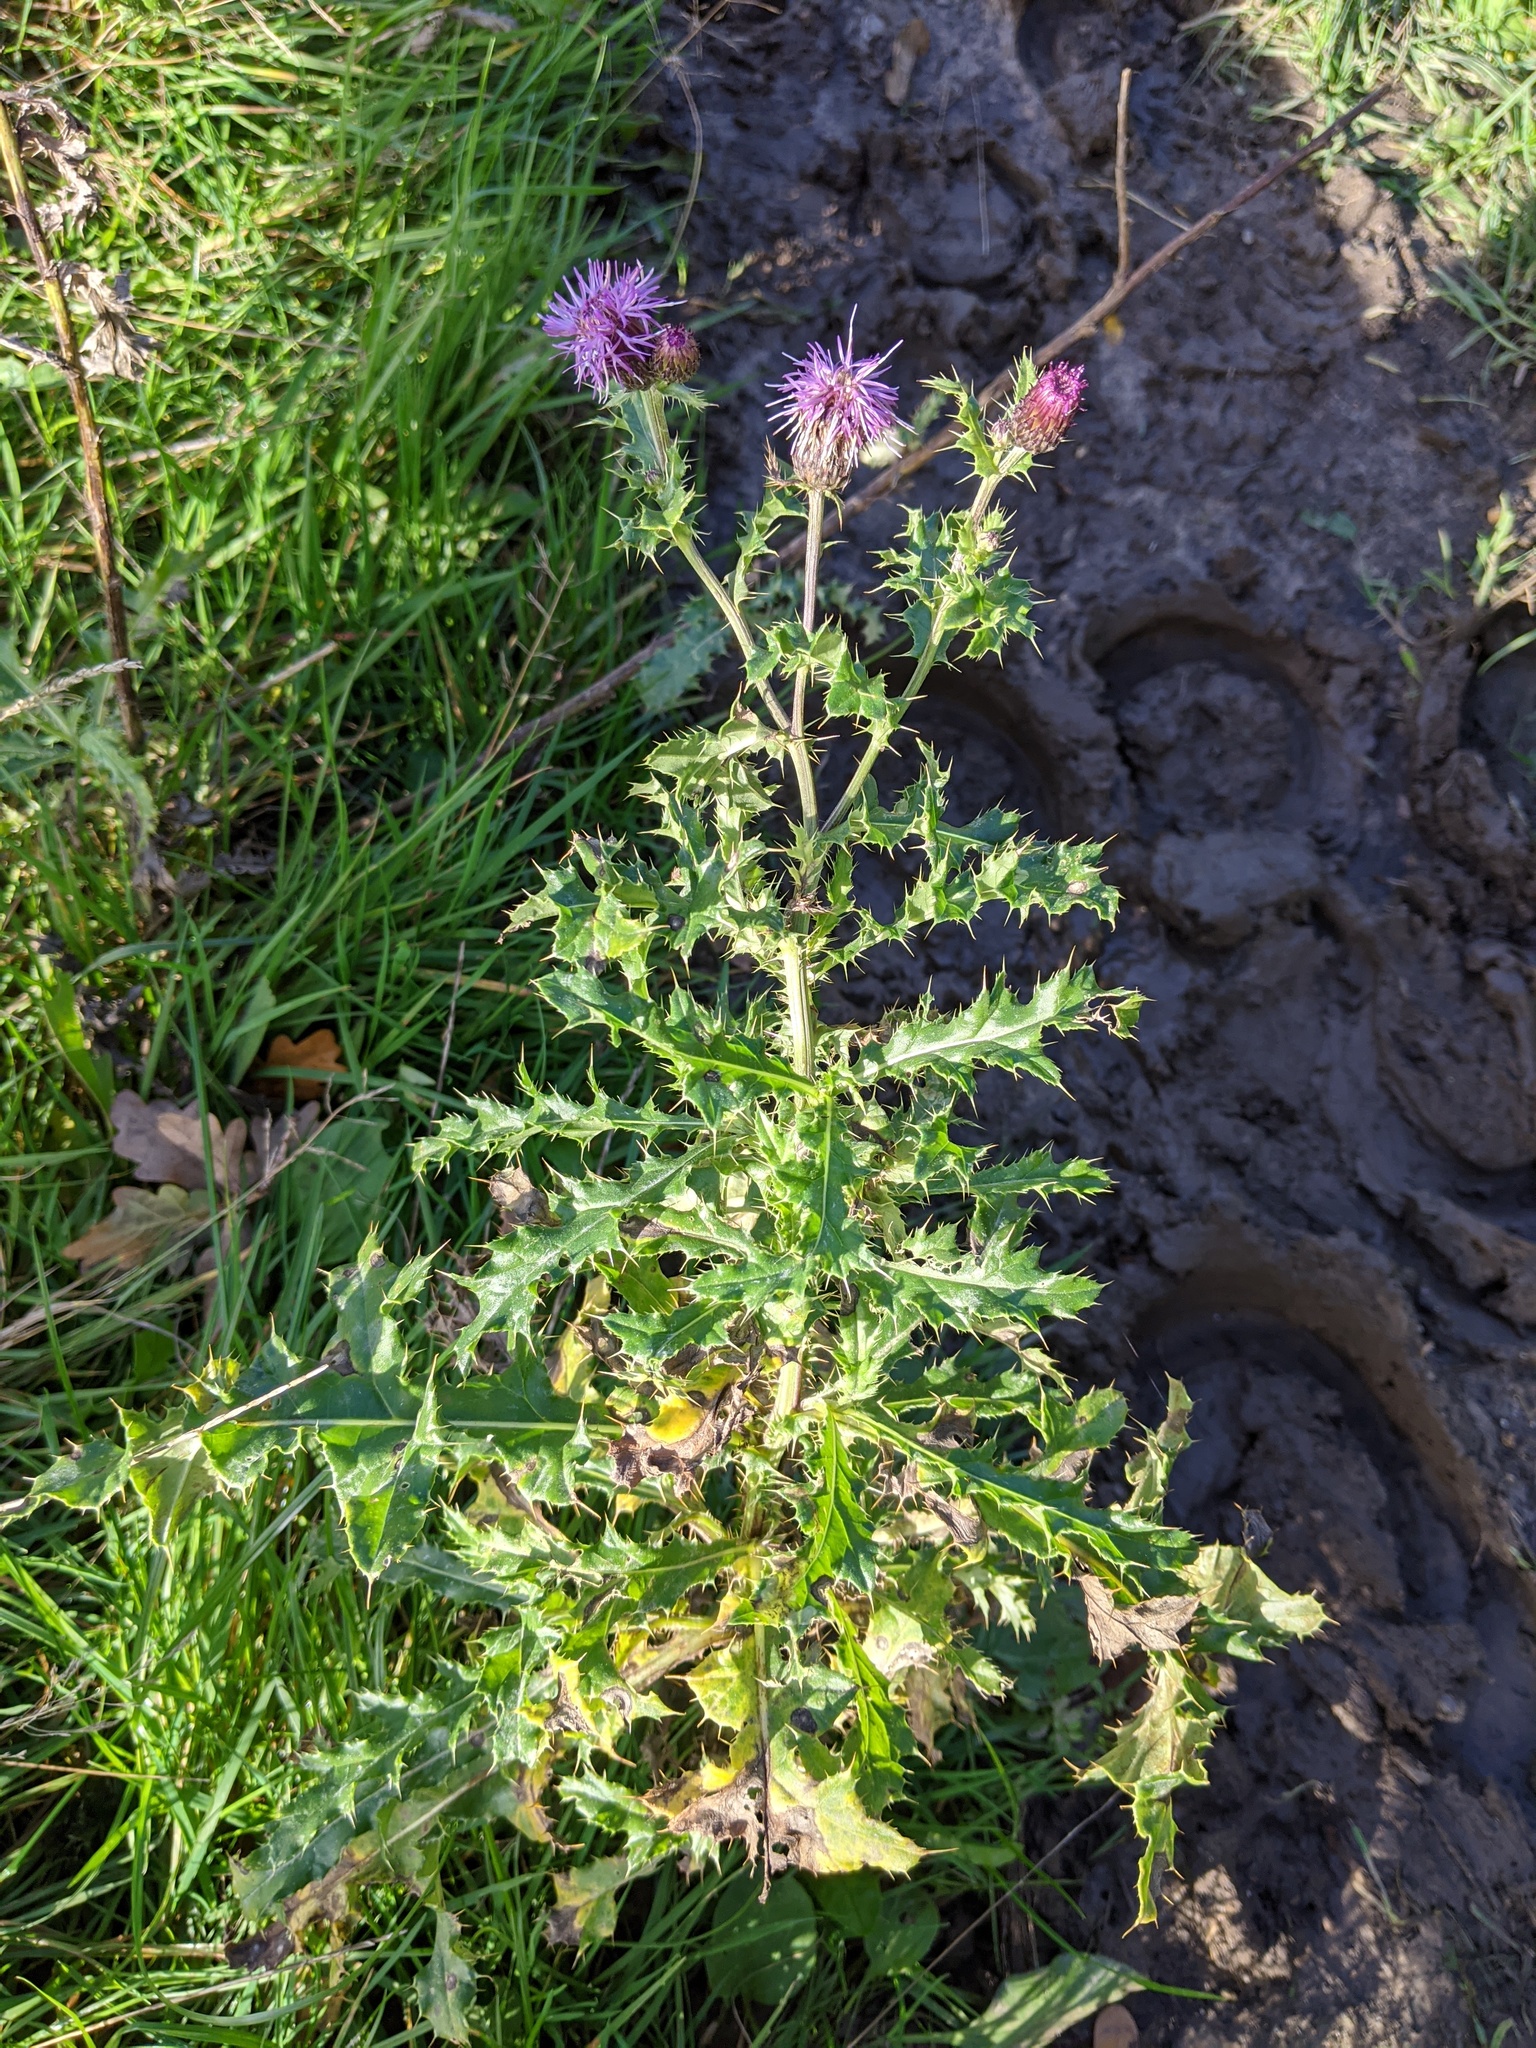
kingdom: Plantae
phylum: Tracheophyta
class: Magnoliopsida
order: Asterales
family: Asteraceae
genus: Cirsium
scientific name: Cirsium arvense
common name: Creeping thistle
